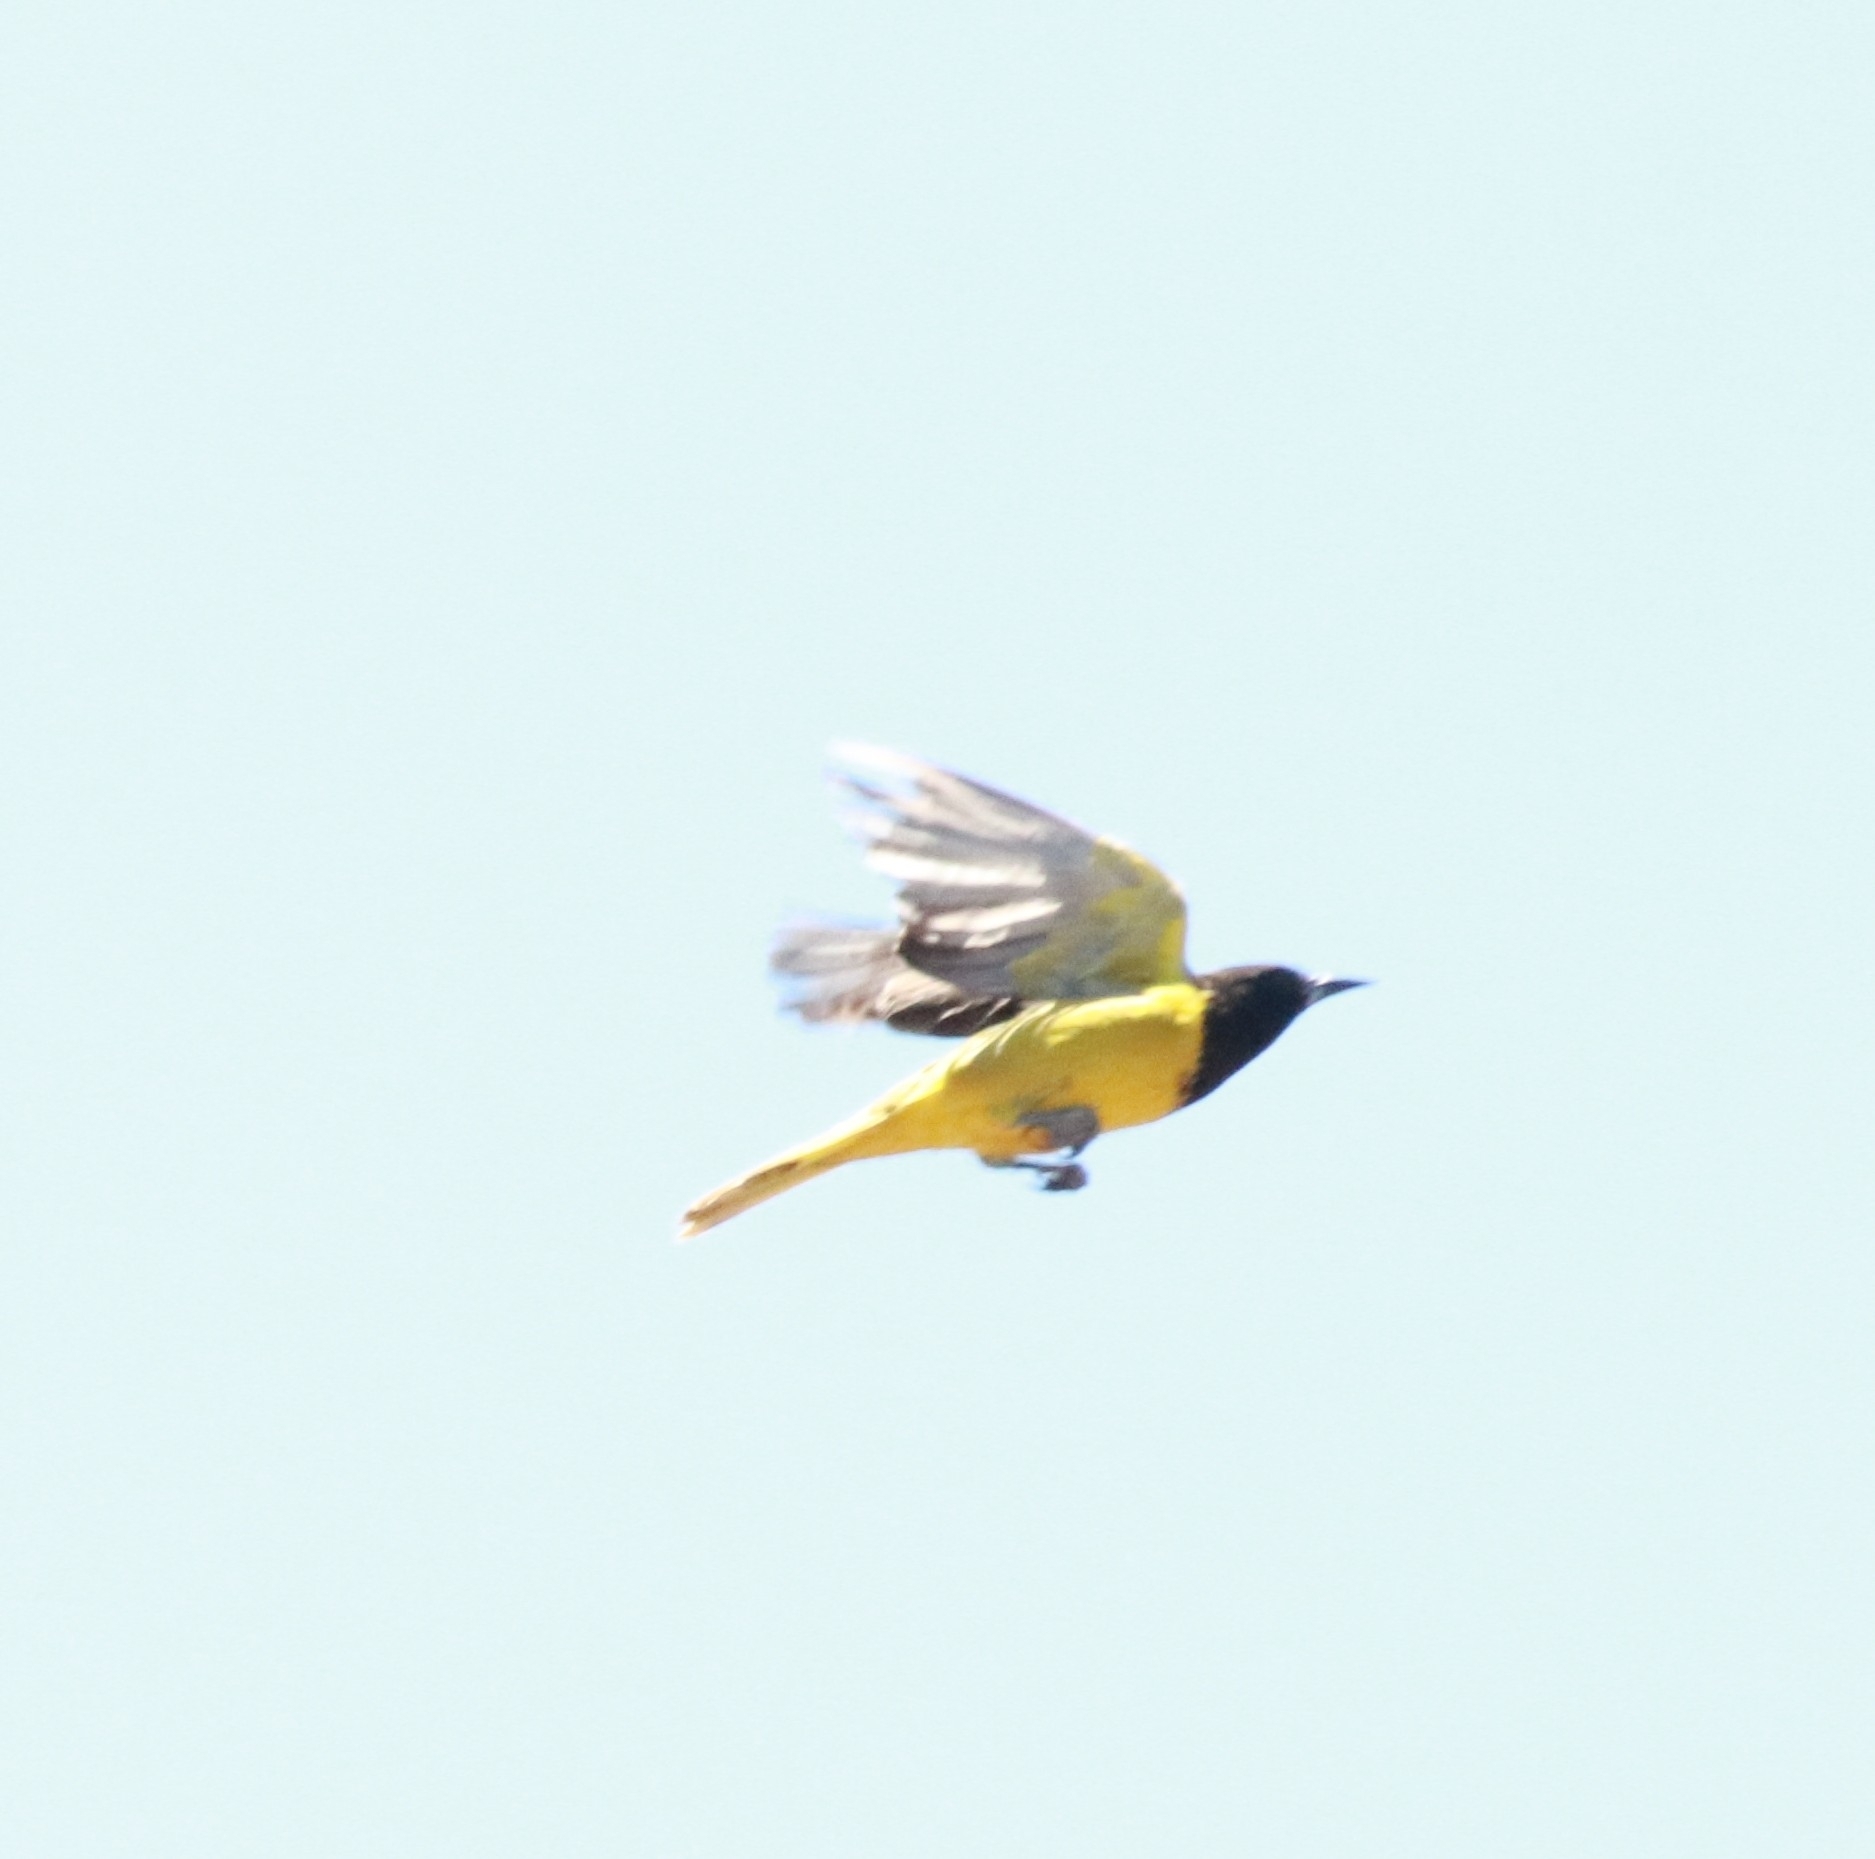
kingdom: Animalia
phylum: Chordata
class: Aves
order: Passeriformes
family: Icteridae
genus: Icterus
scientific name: Icterus parisorum
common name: Scott's oriole
